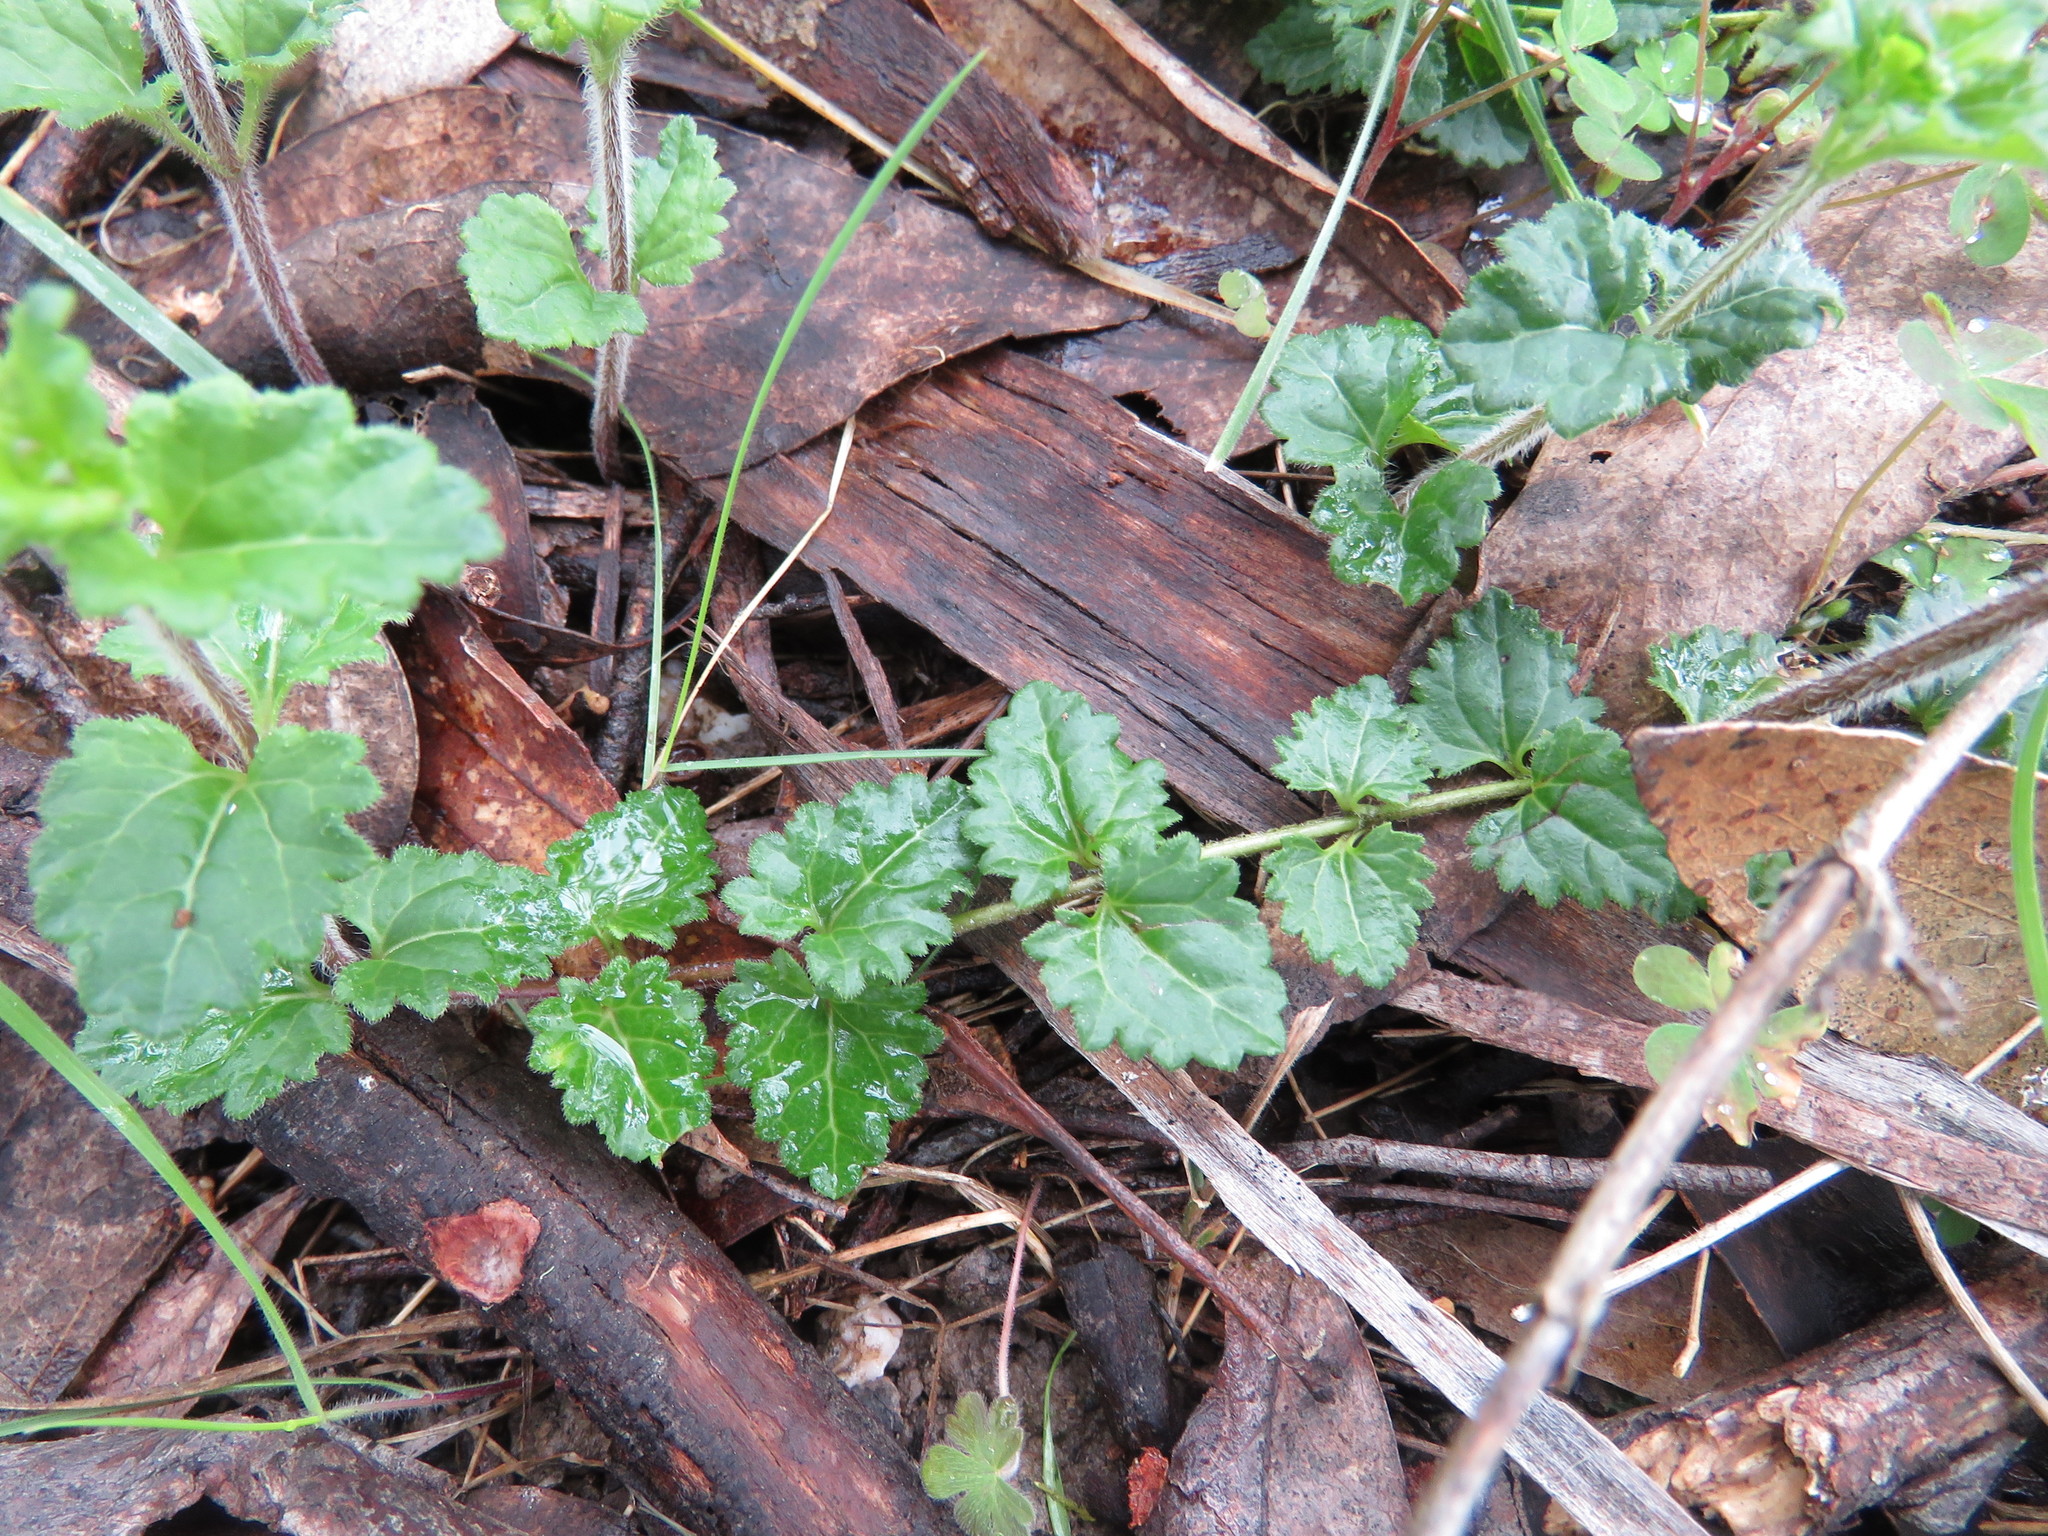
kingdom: Plantae
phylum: Tracheophyta
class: Magnoliopsida
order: Lamiales
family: Plantaginaceae
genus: Veronica
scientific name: Veronica calycina
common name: Cup speedwell
